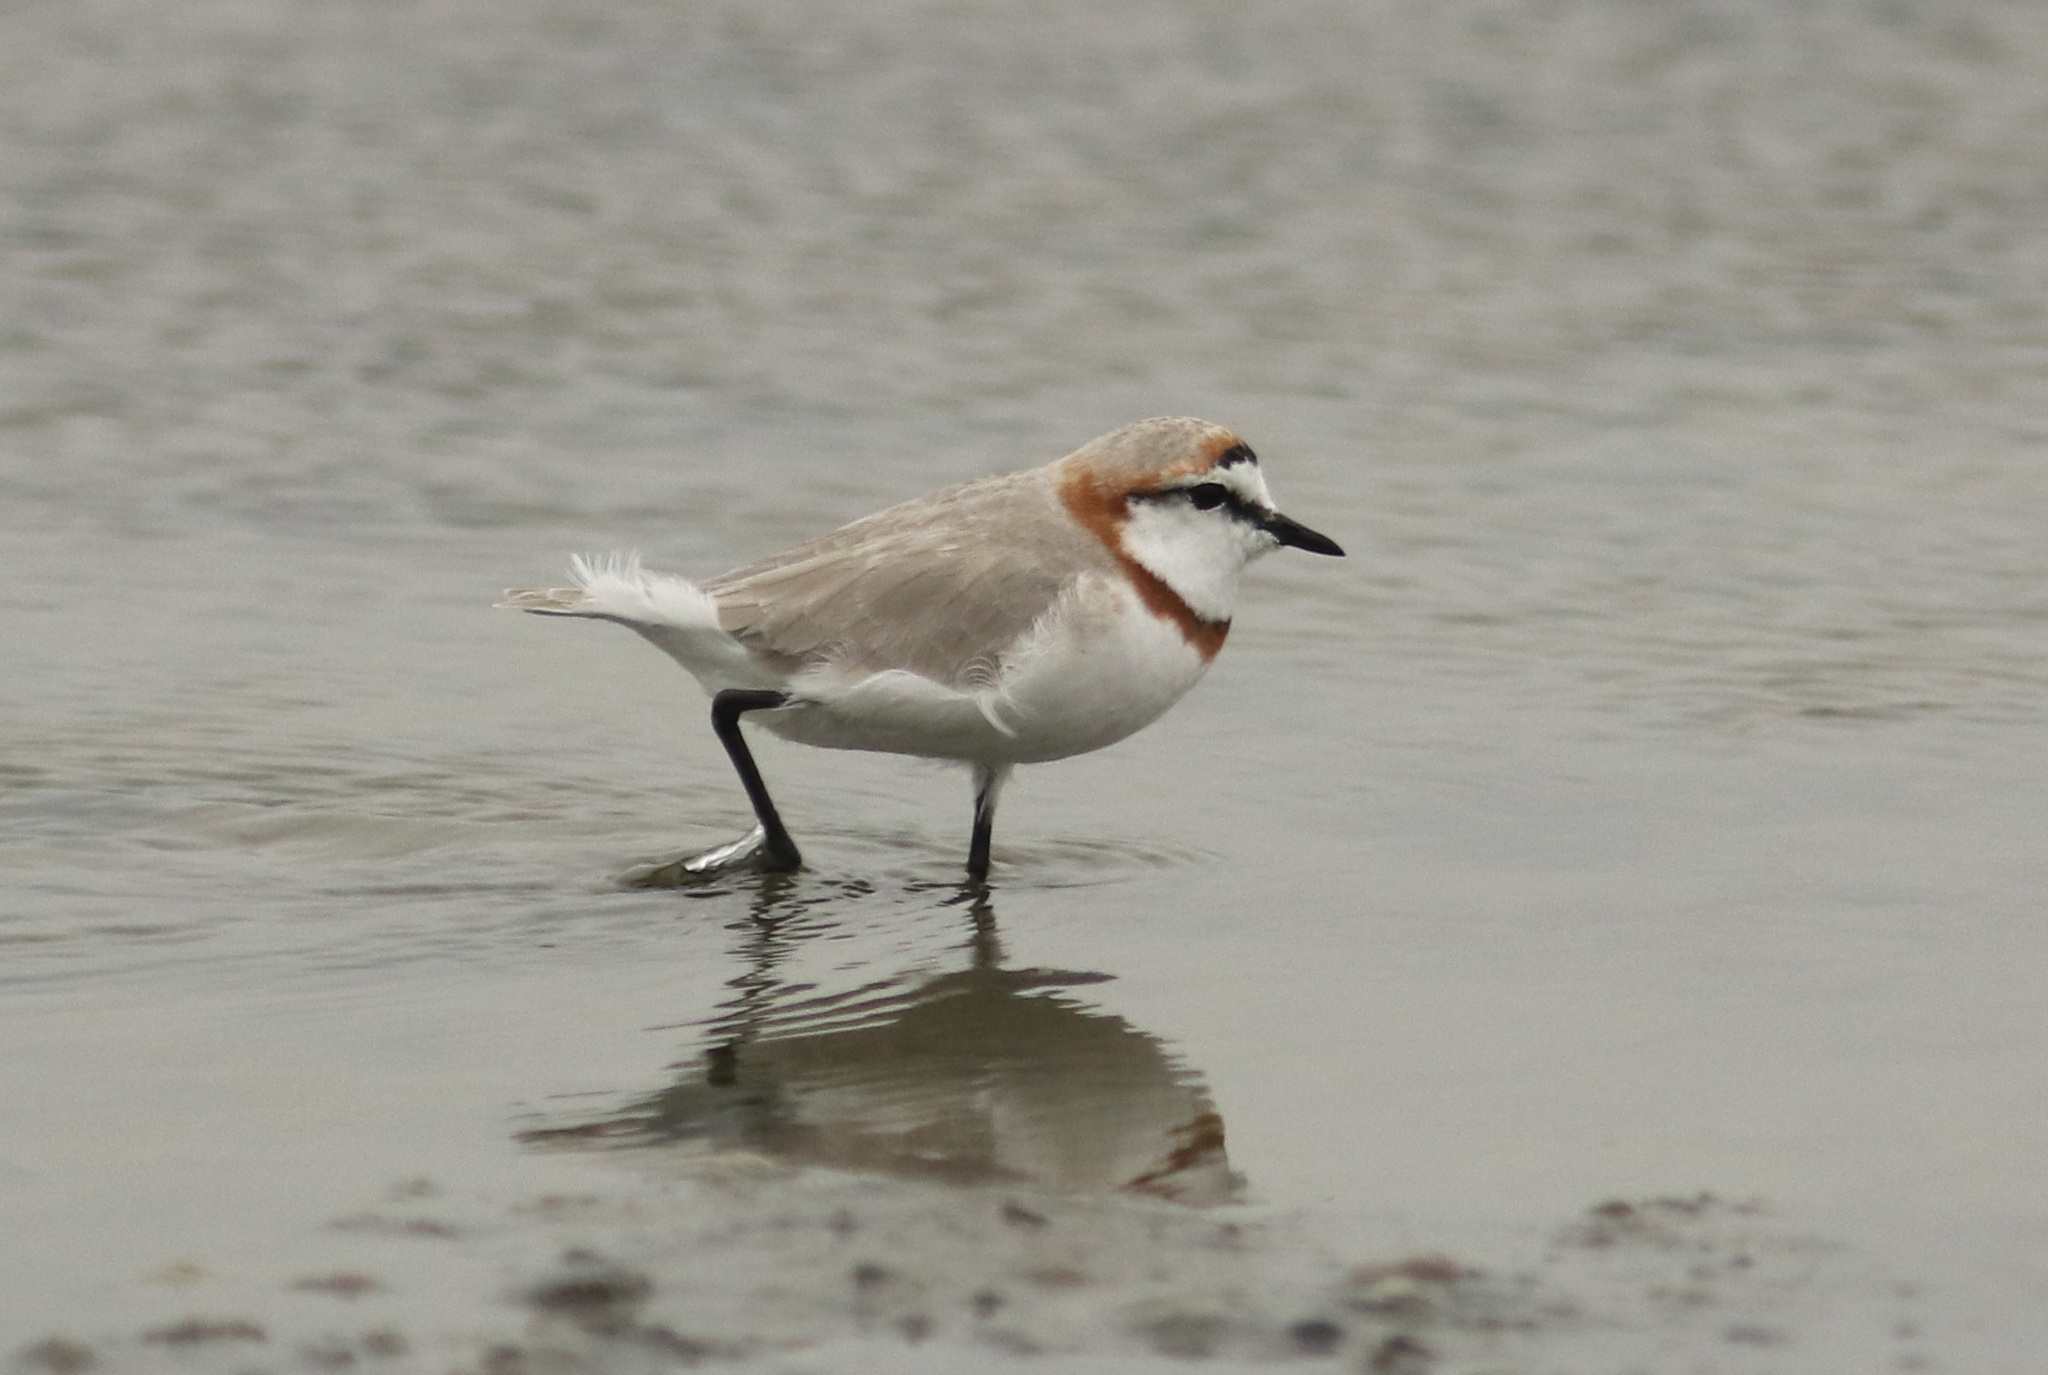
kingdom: Animalia
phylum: Chordata
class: Aves
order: Charadriiformes
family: Charadriidae
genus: Anarhynchus
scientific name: Anarhynchus
